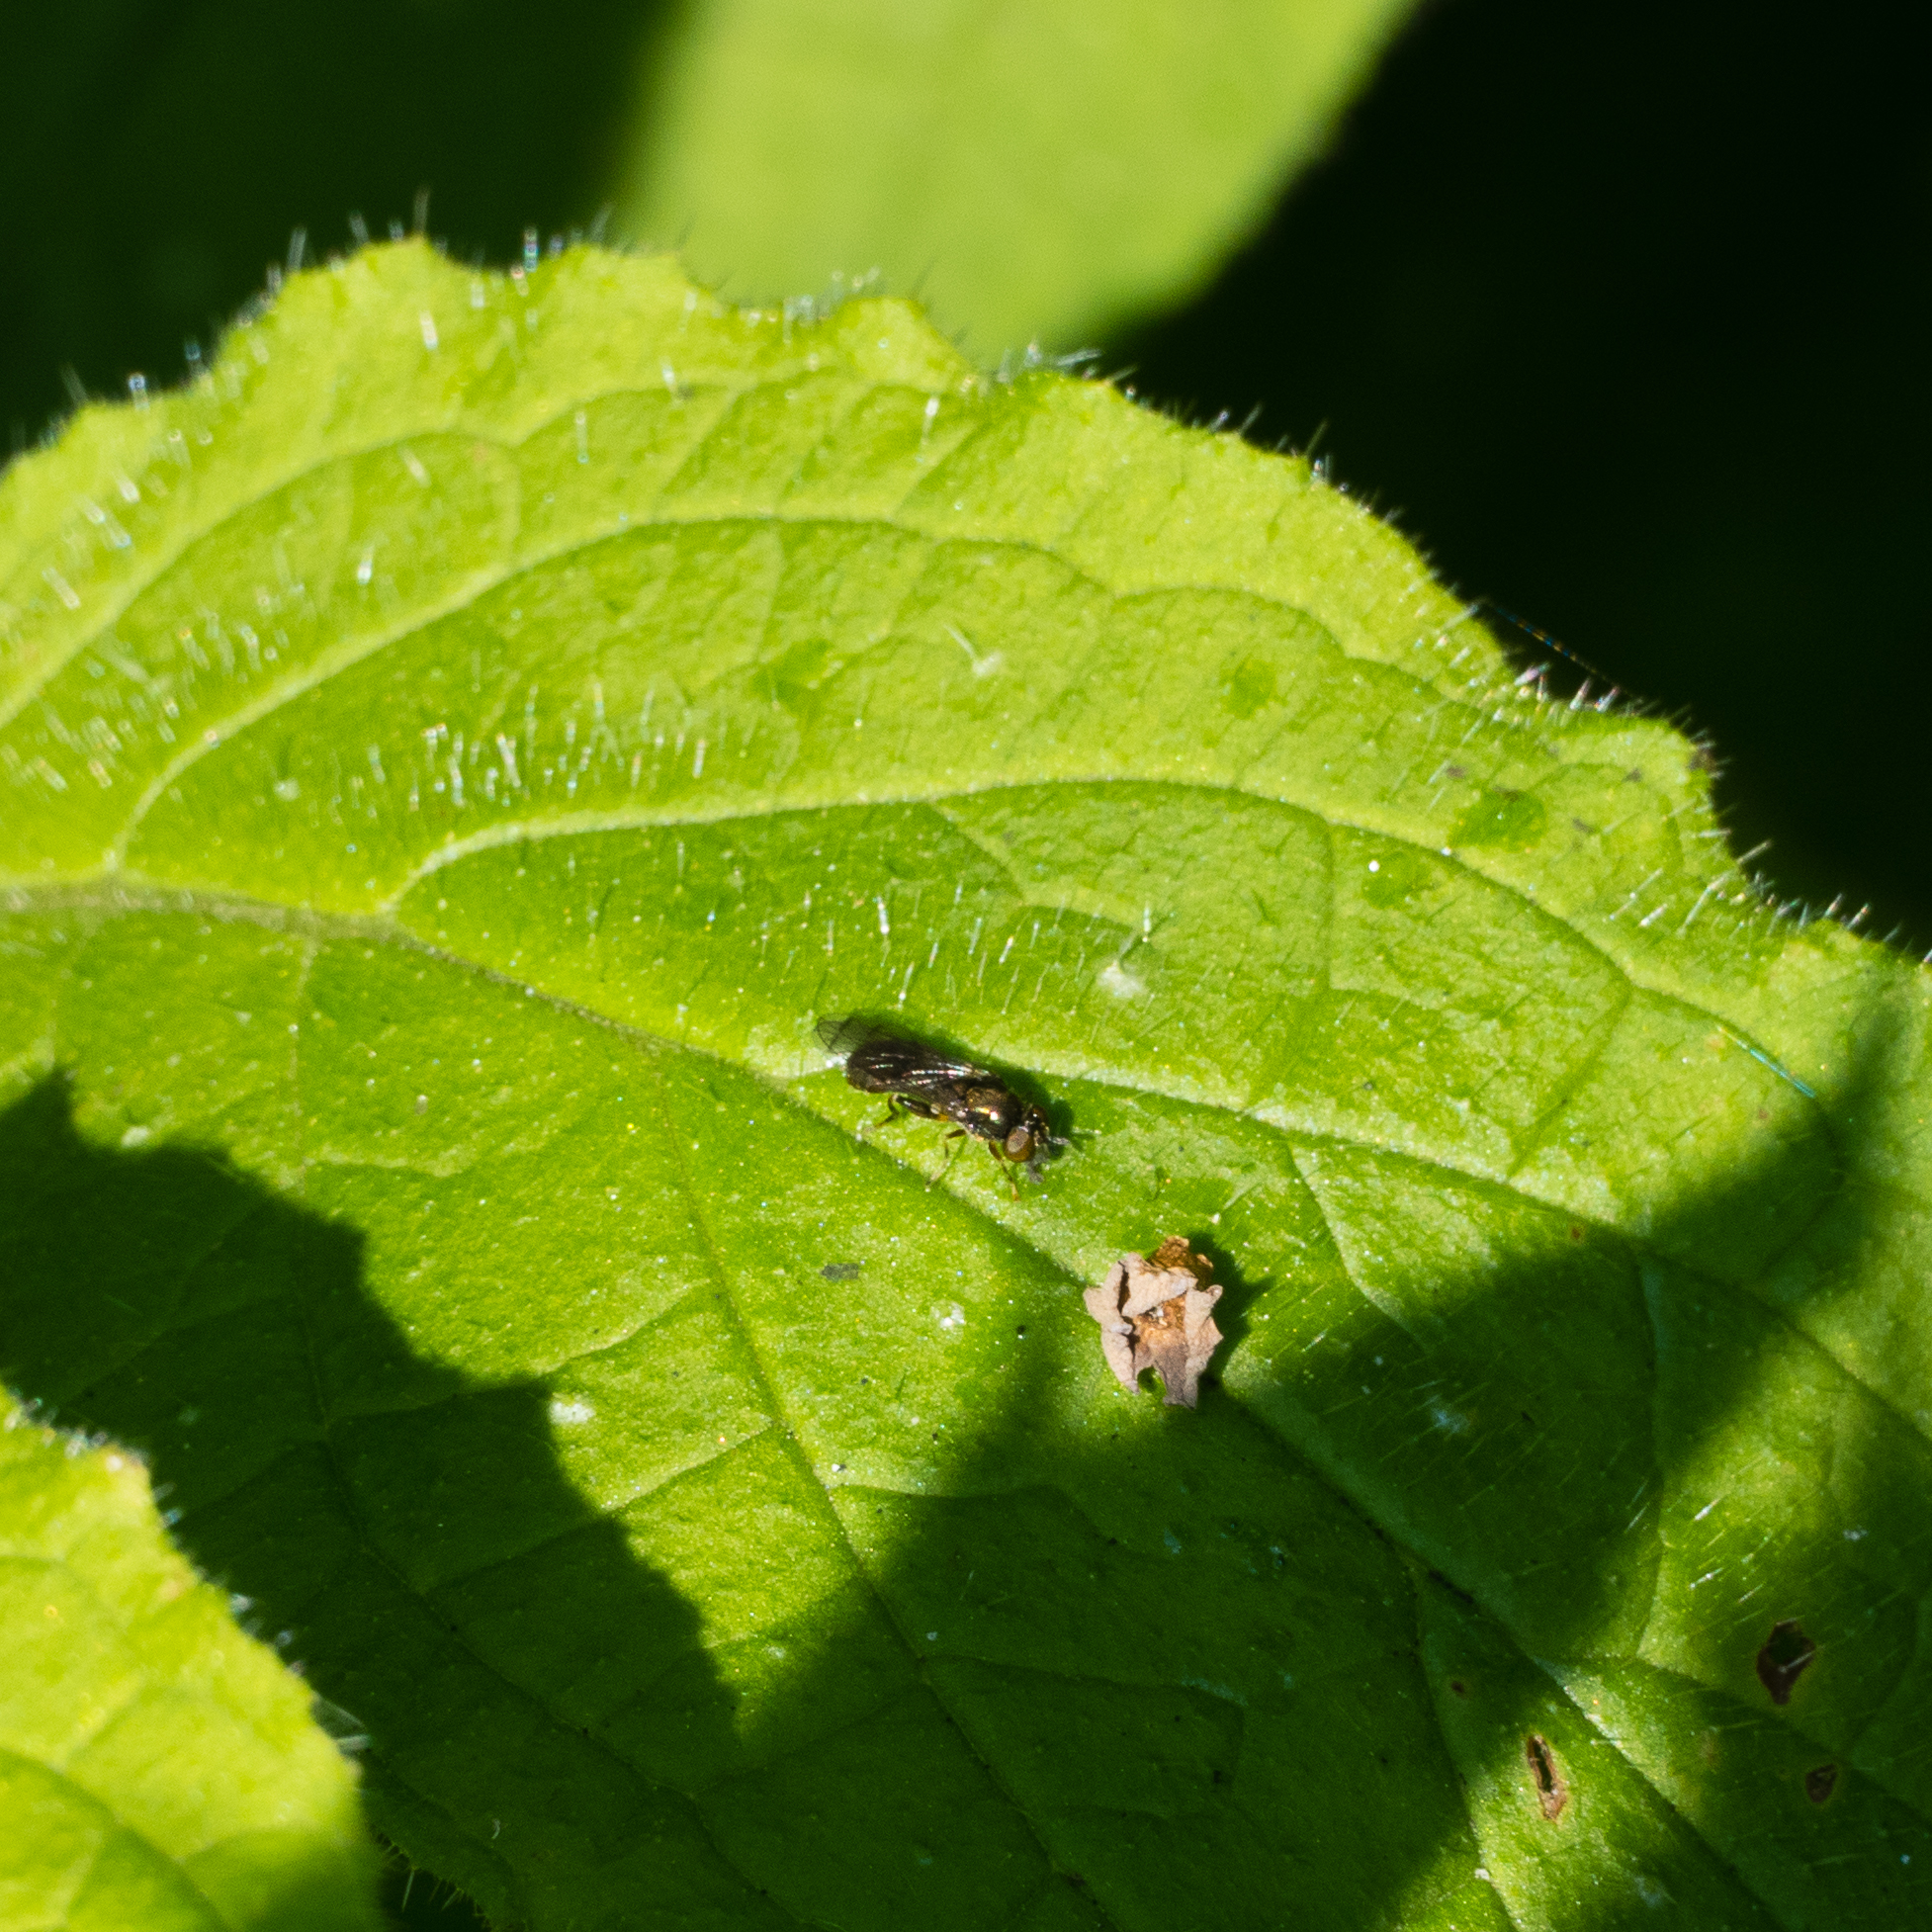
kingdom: Animalia
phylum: Arthropoda
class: Insecta
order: Diptera
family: Syrphidae
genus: Neoascia
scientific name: Neoascia
